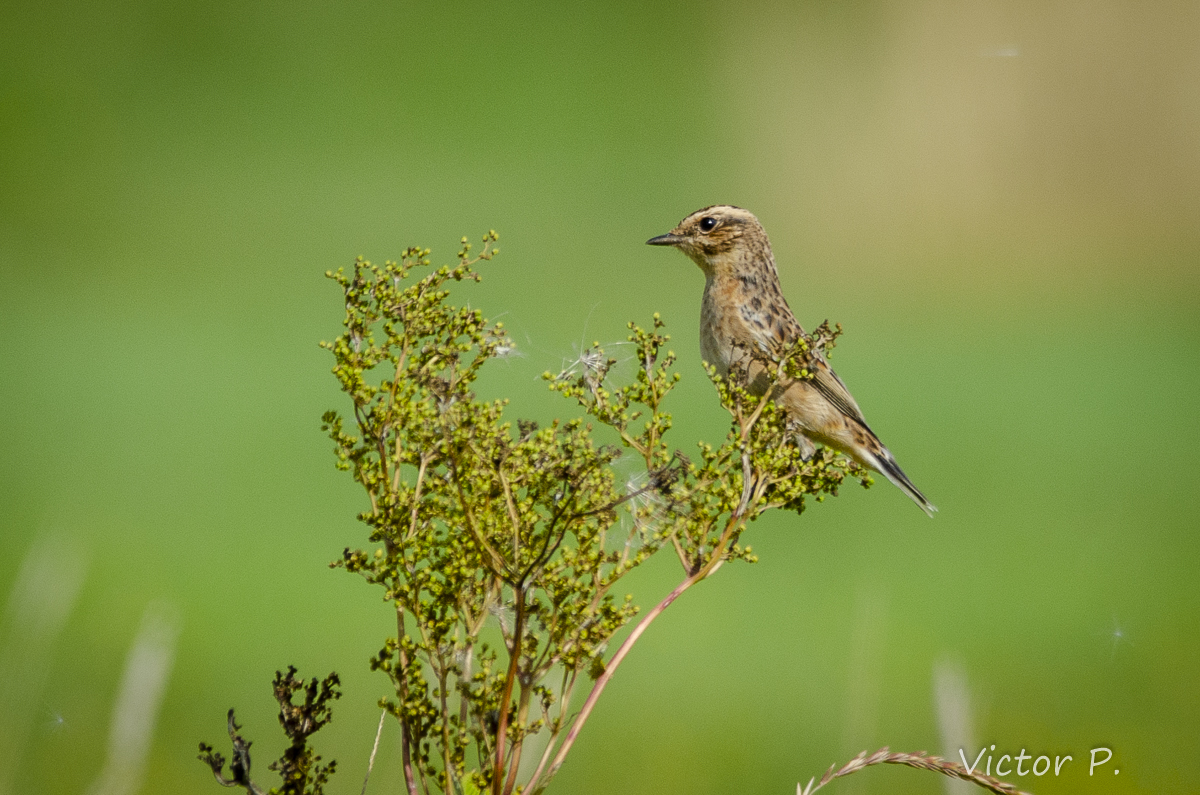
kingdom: Animalia
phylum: Chordata
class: Aves
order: Passeriformes
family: Muscicapidae
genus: Saxicola
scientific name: Saxicola rubetra
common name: Whinchat
